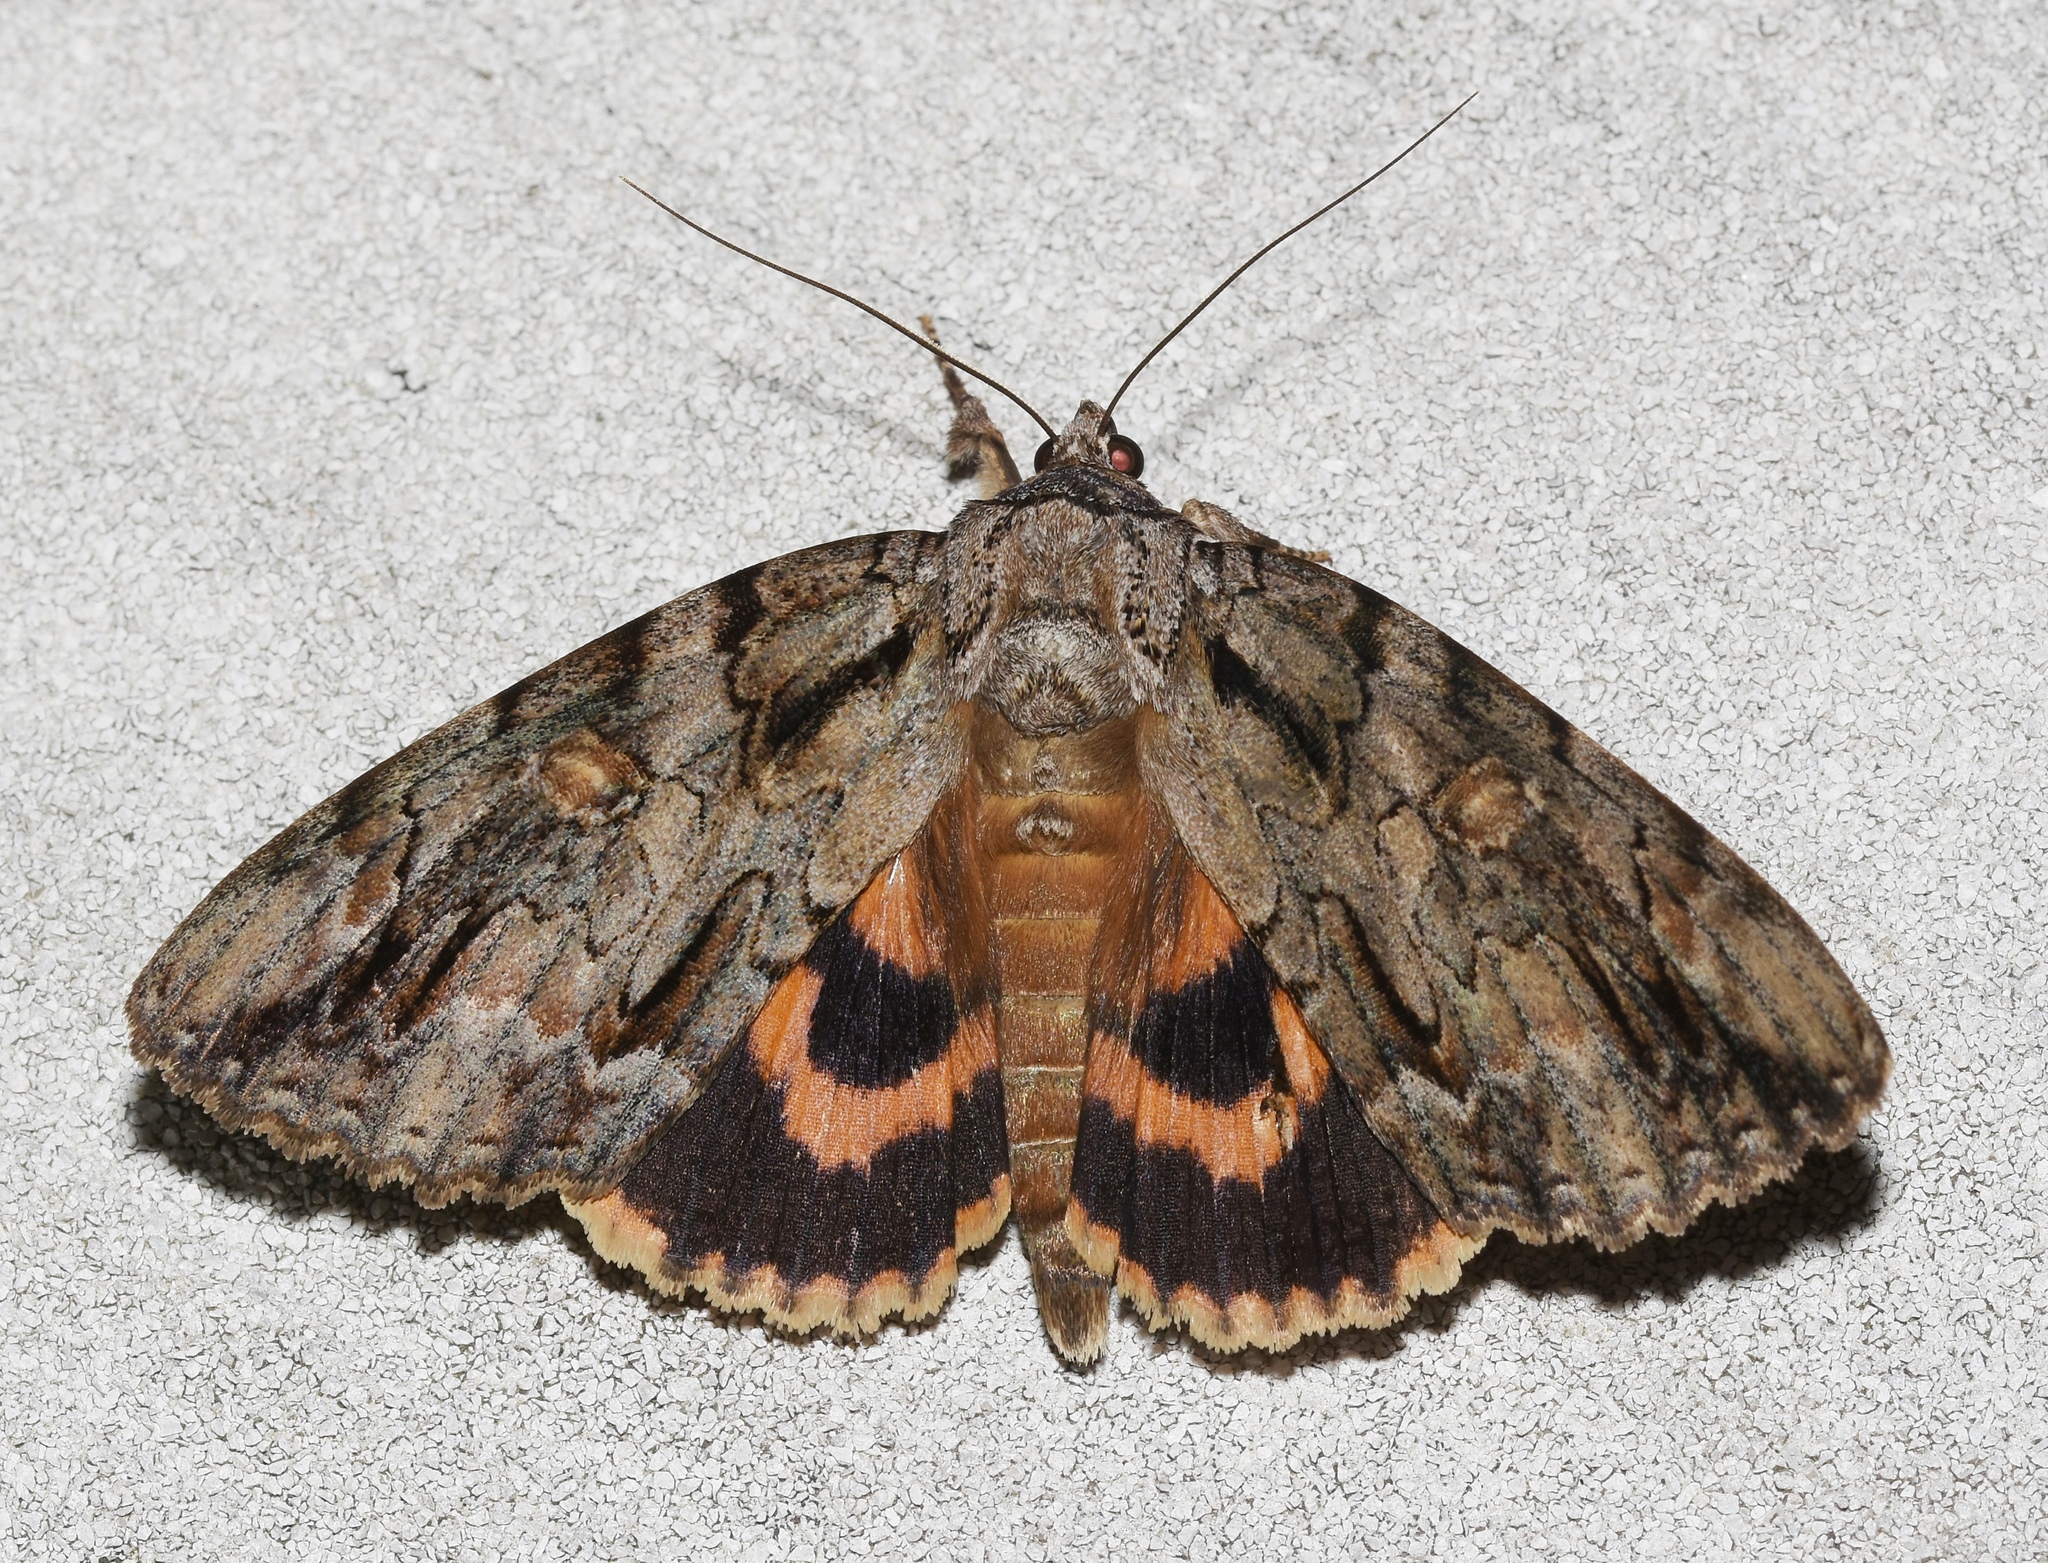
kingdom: Animalia
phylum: Arthropoda
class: Insecta
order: Lepidoptera
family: Erebidae
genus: Catocala
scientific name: Catocala neogama
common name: Bride underwing
